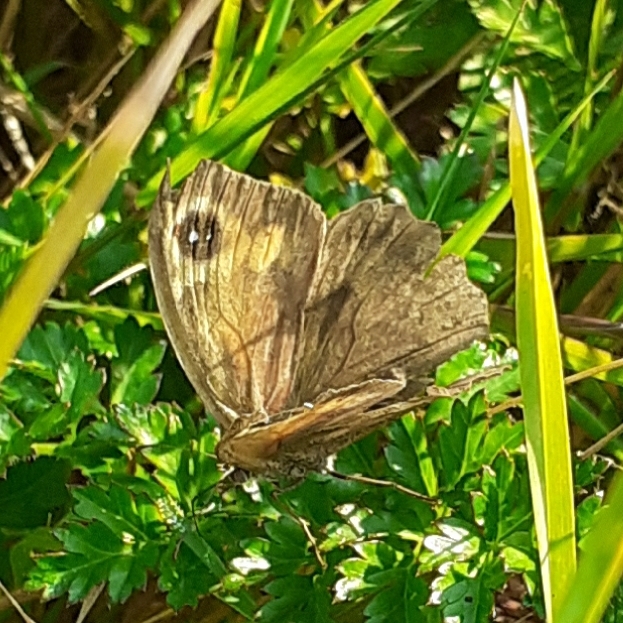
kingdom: Animalia
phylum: Arthropoda
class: Insecta
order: Lepidoptera
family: Nymphalidae
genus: Maniola
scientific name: Maniola jurtina
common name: Meadow brown
